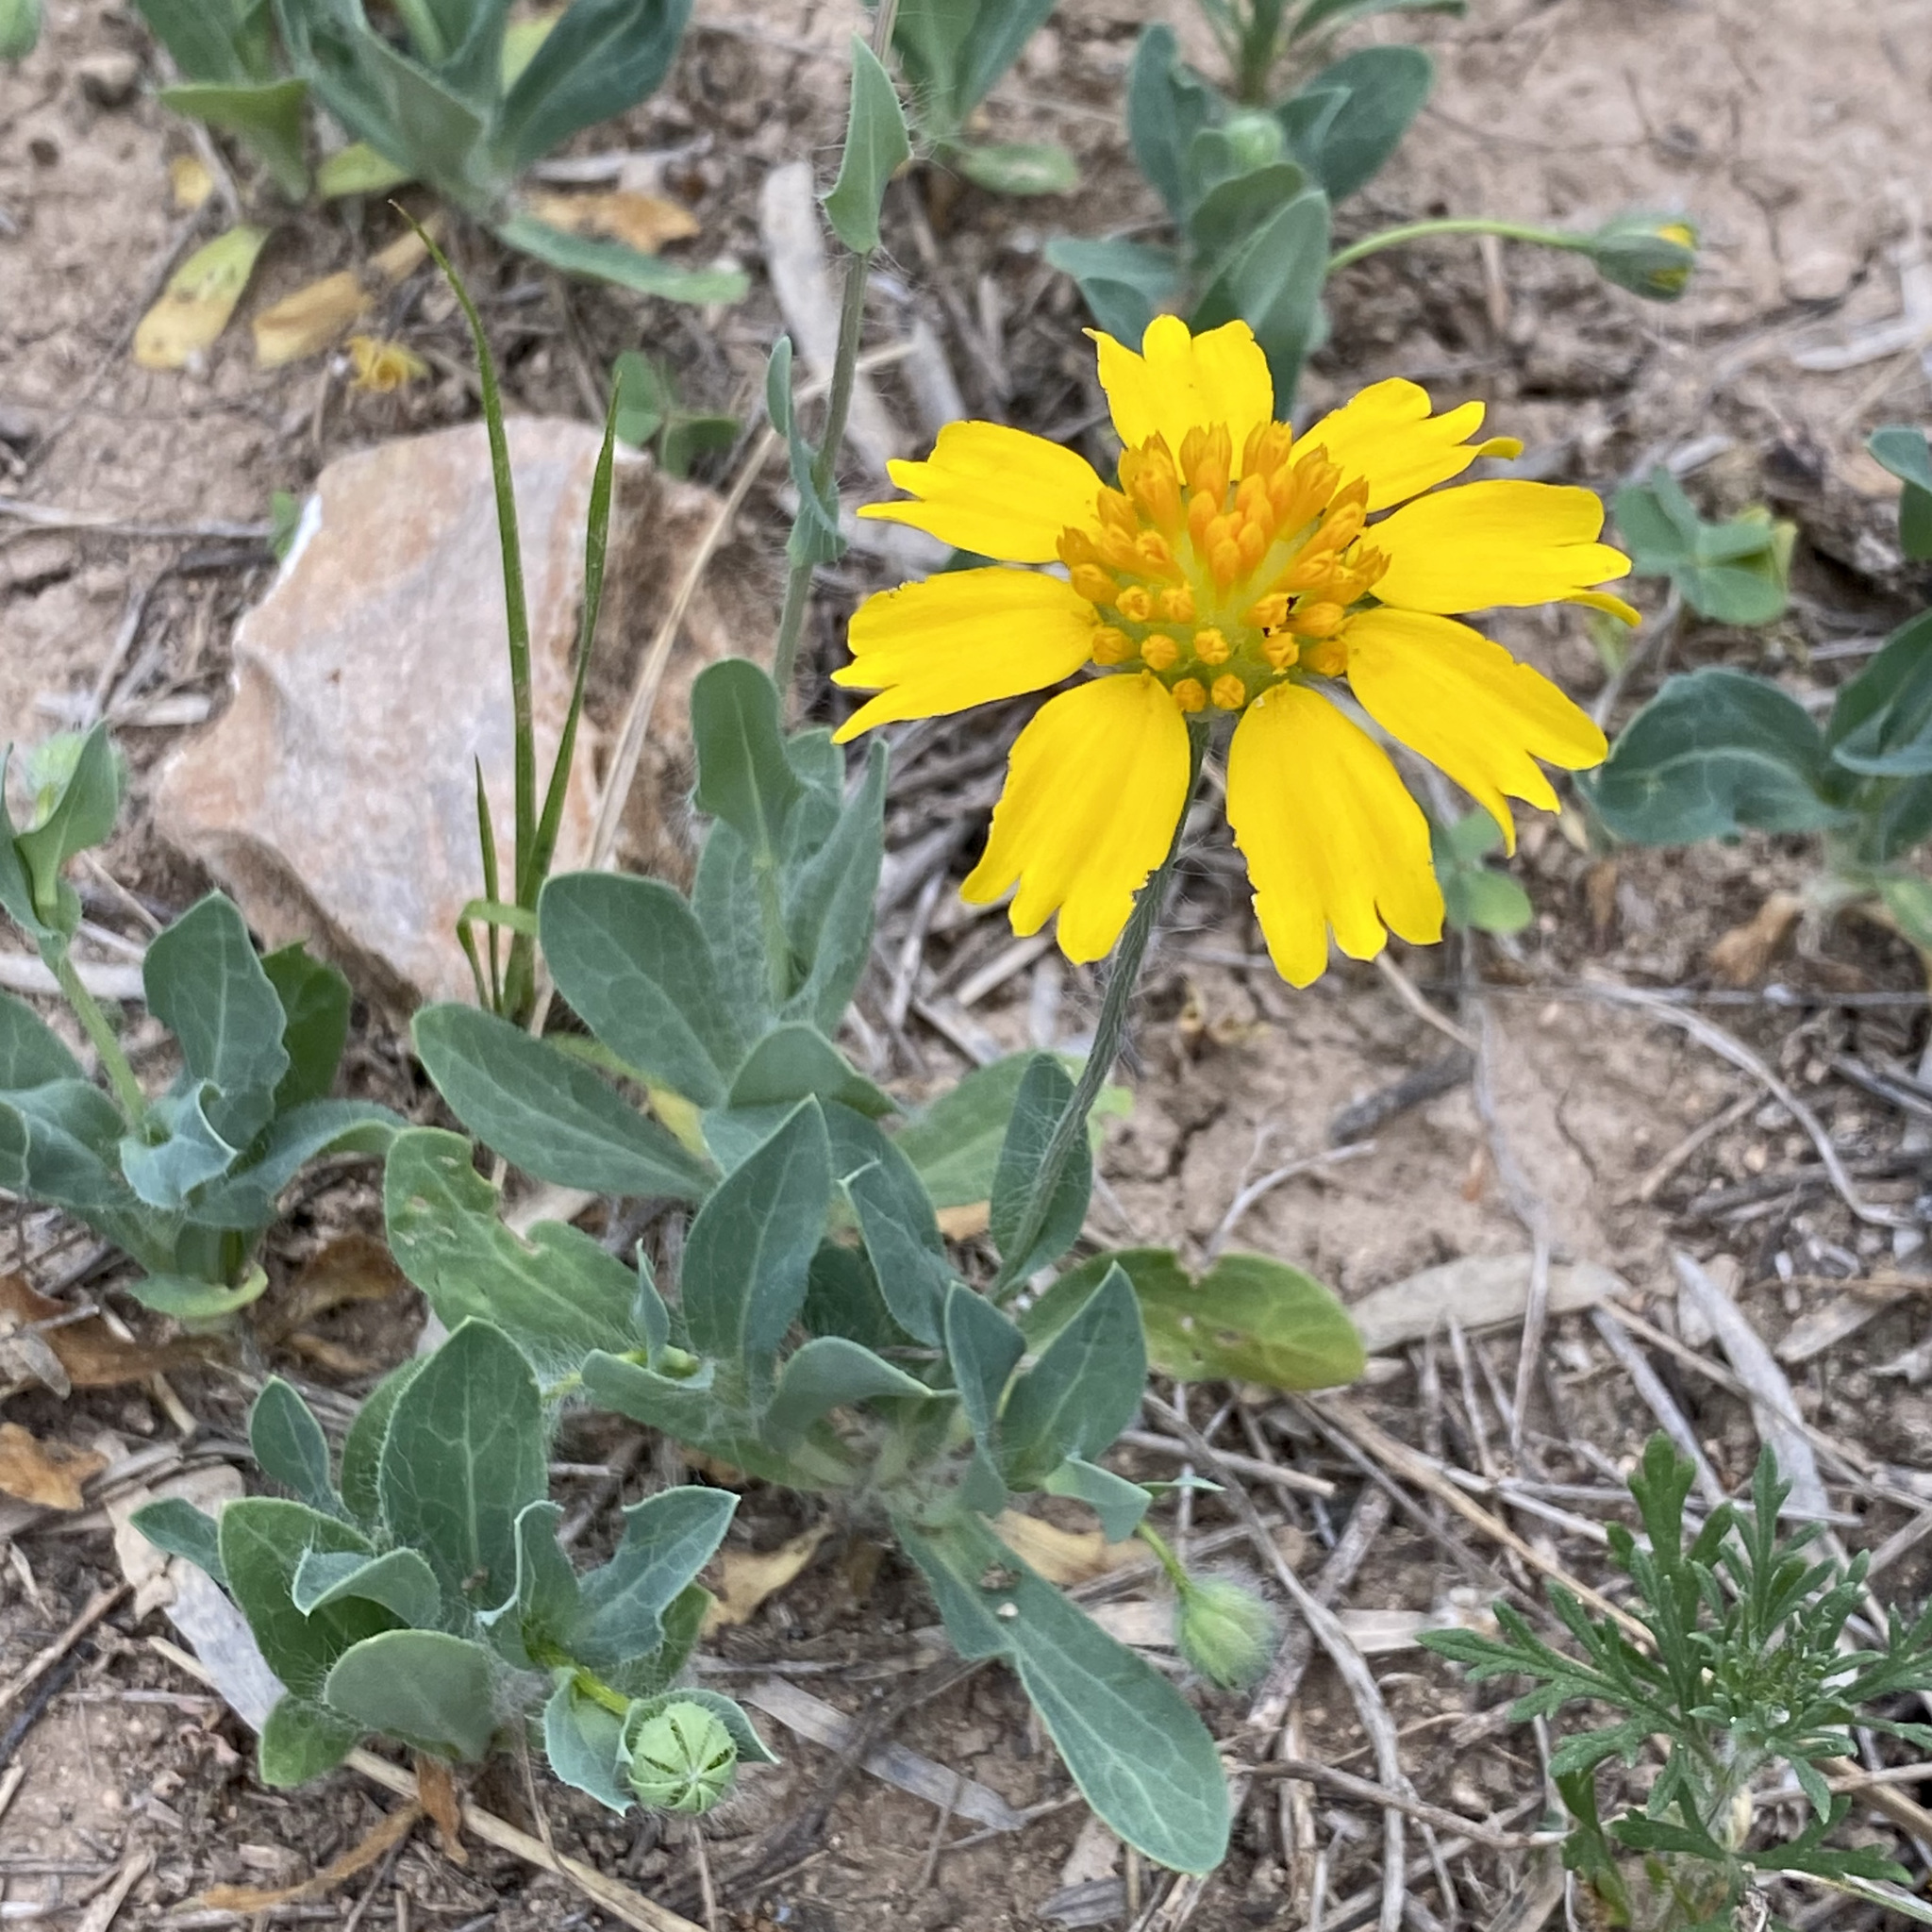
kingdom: Plantae
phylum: Tracheophyta
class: Magnoliopsida
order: Asterales
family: Asteraceae
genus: Amblyolepis
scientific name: Amblyolepis setigera
